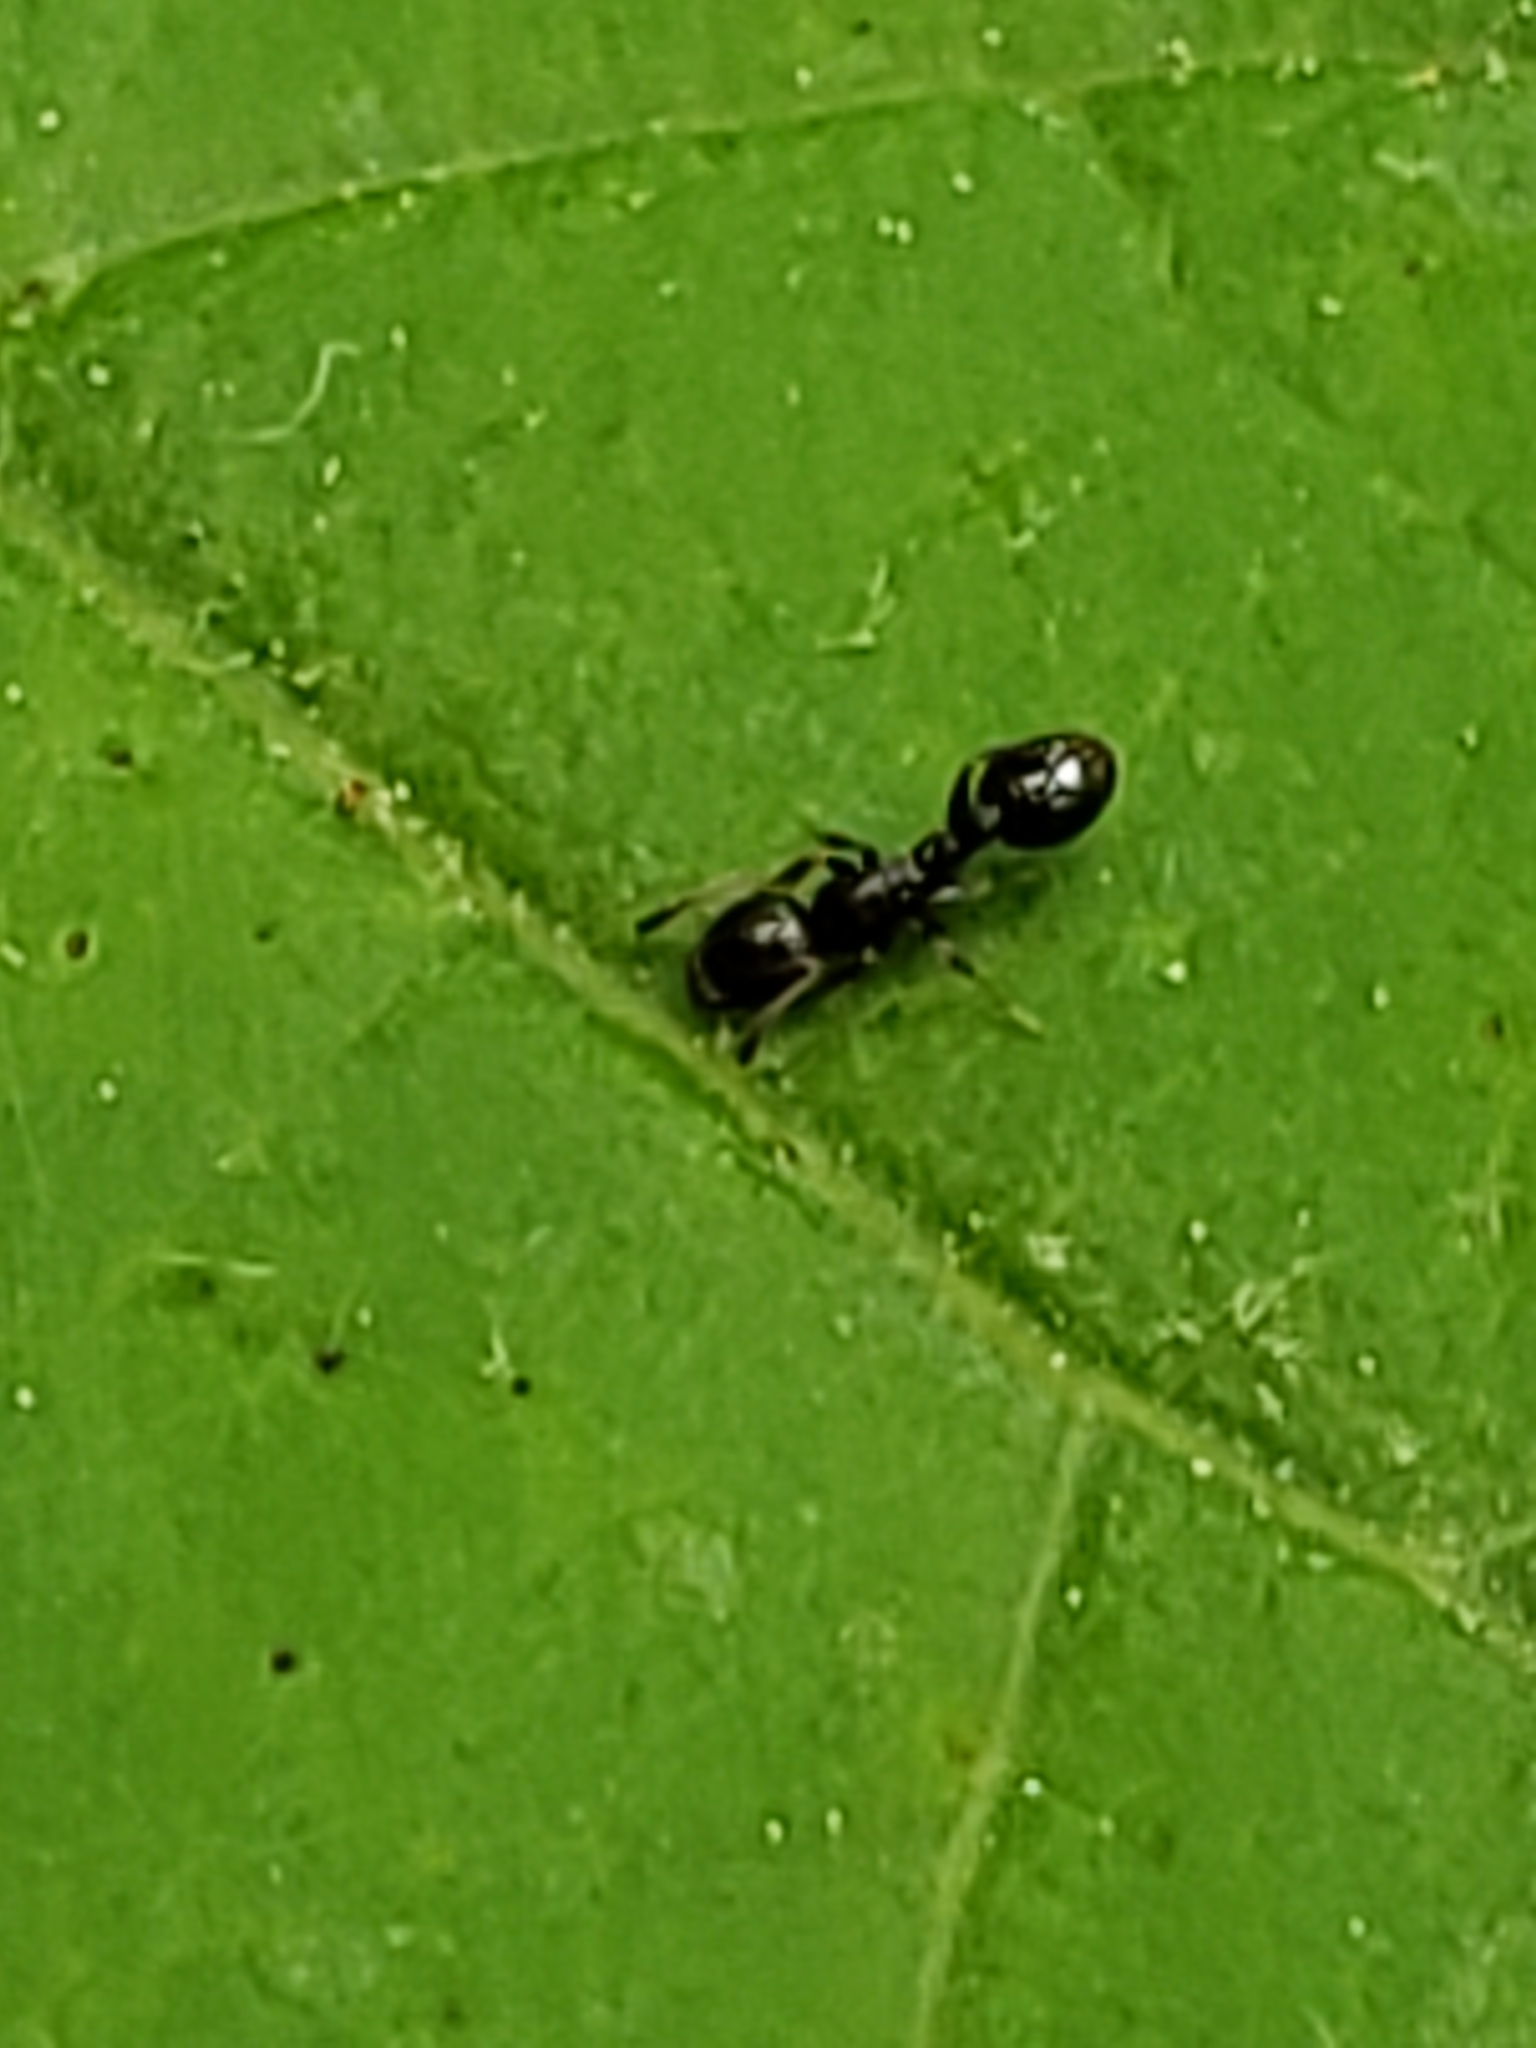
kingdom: Animalia
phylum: Arthropoda
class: Insecta
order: Hymenoptera
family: Formicidae
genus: Temnothorax
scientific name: Temnothorax longispinosus
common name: Long-spined acorn ant
